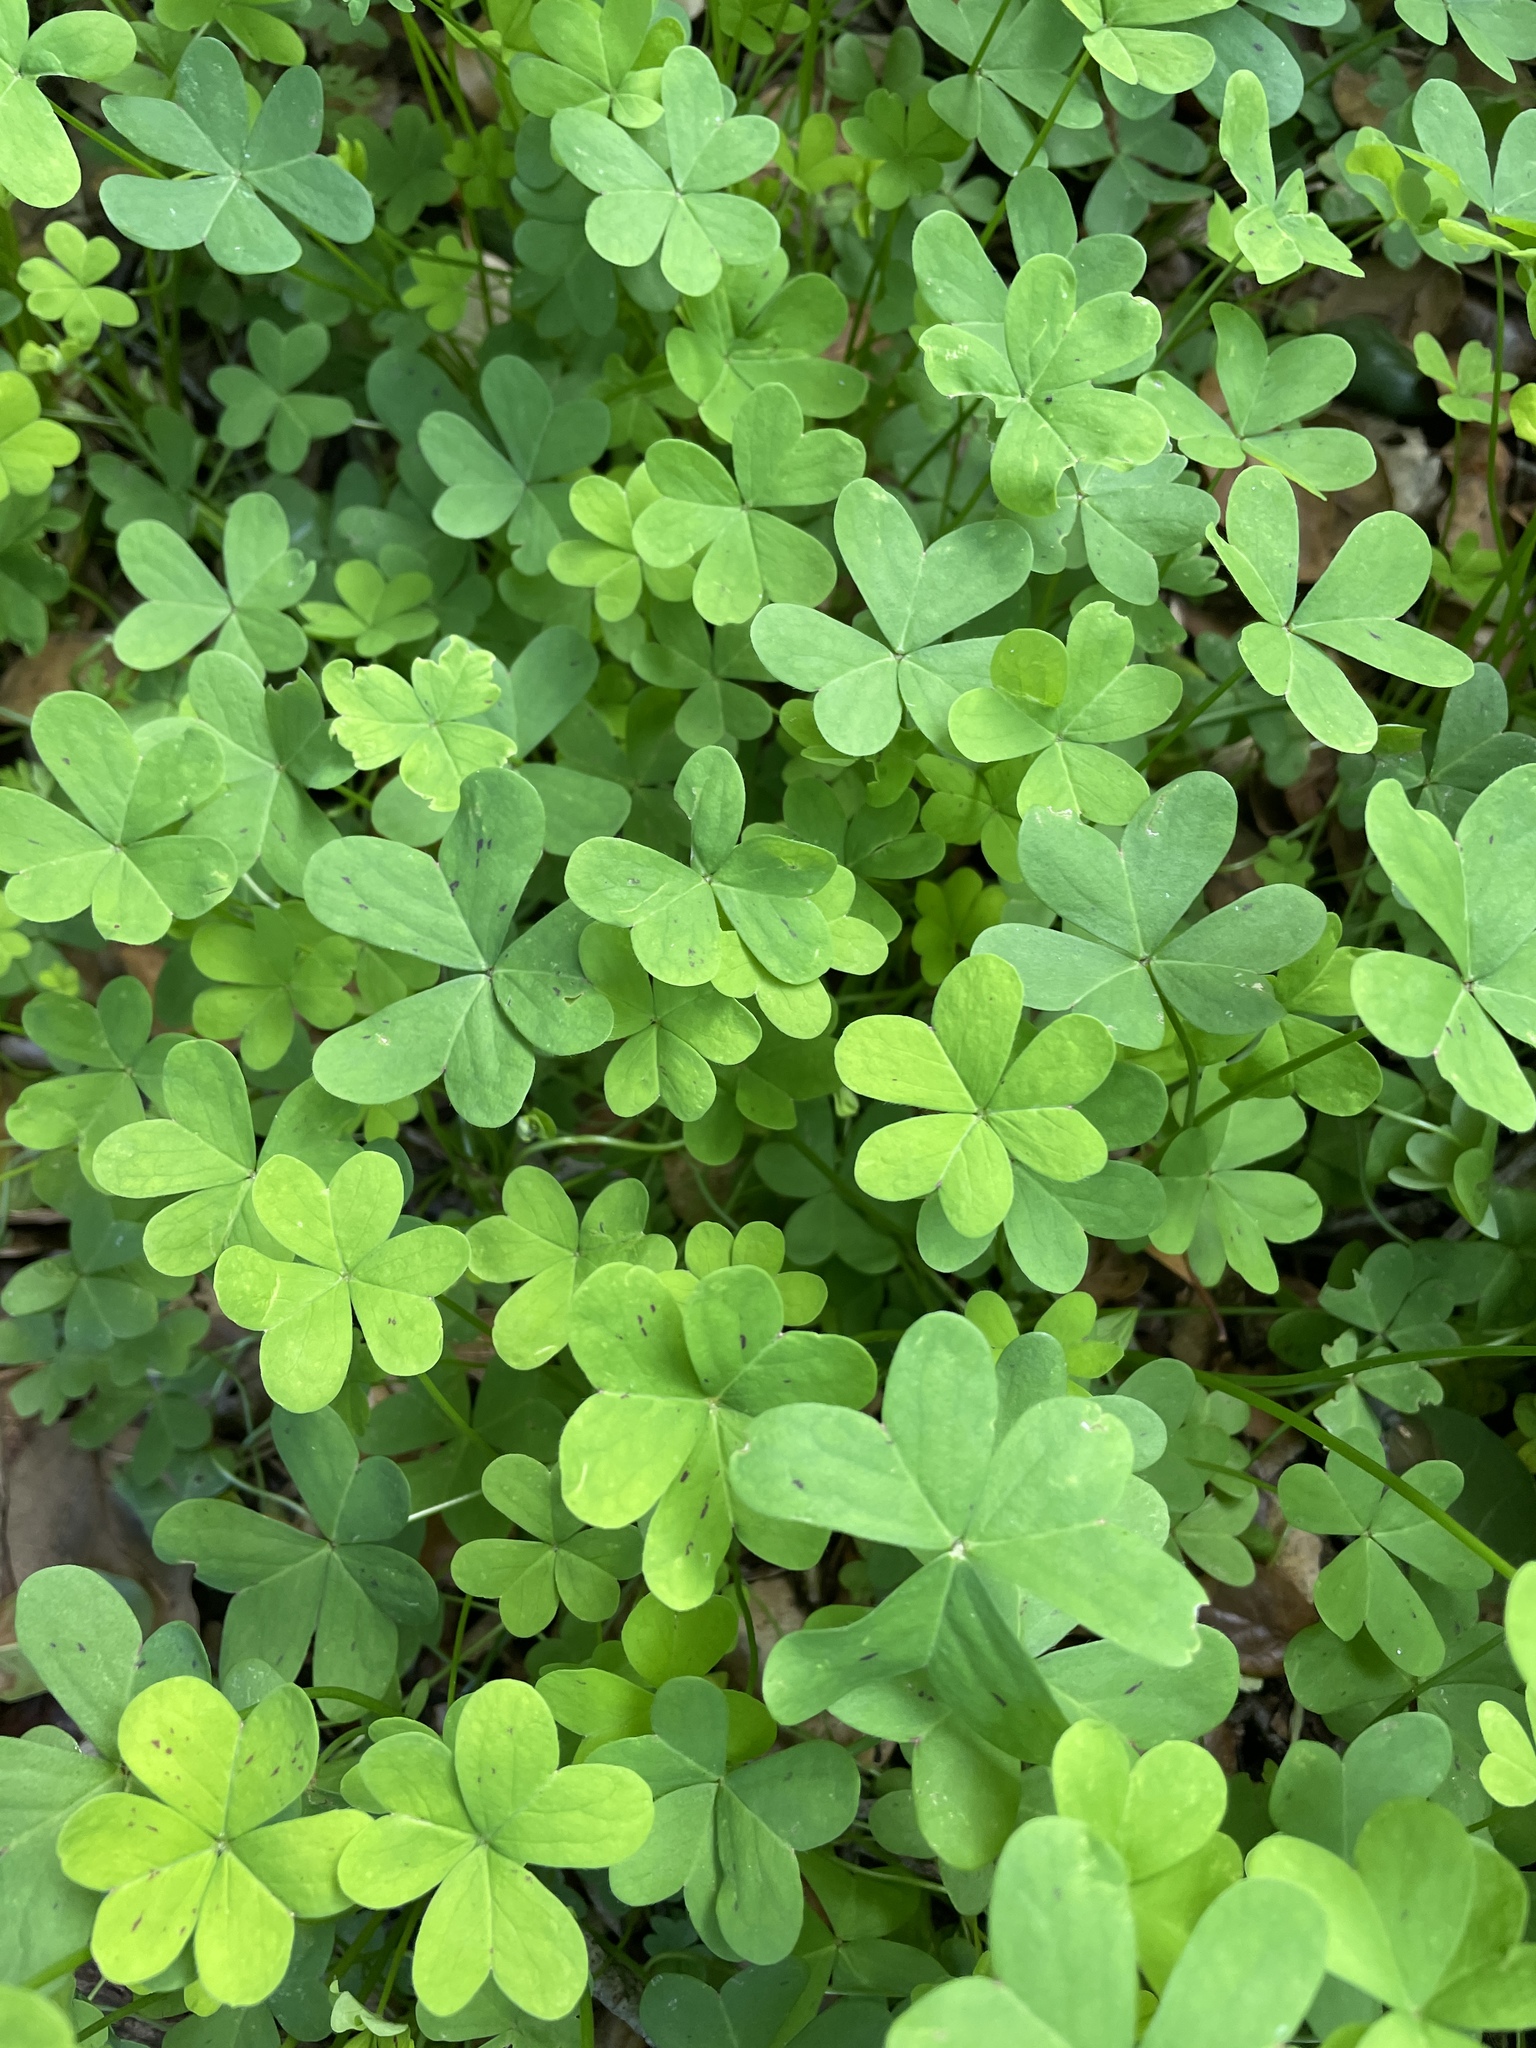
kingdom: Plantae
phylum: Tracheophyta
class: Magnoliopsida
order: Oxalidales
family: Oxalidaceae
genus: Oxalis
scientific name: Oxalis pes-caprae
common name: Bermuda-buttercup
